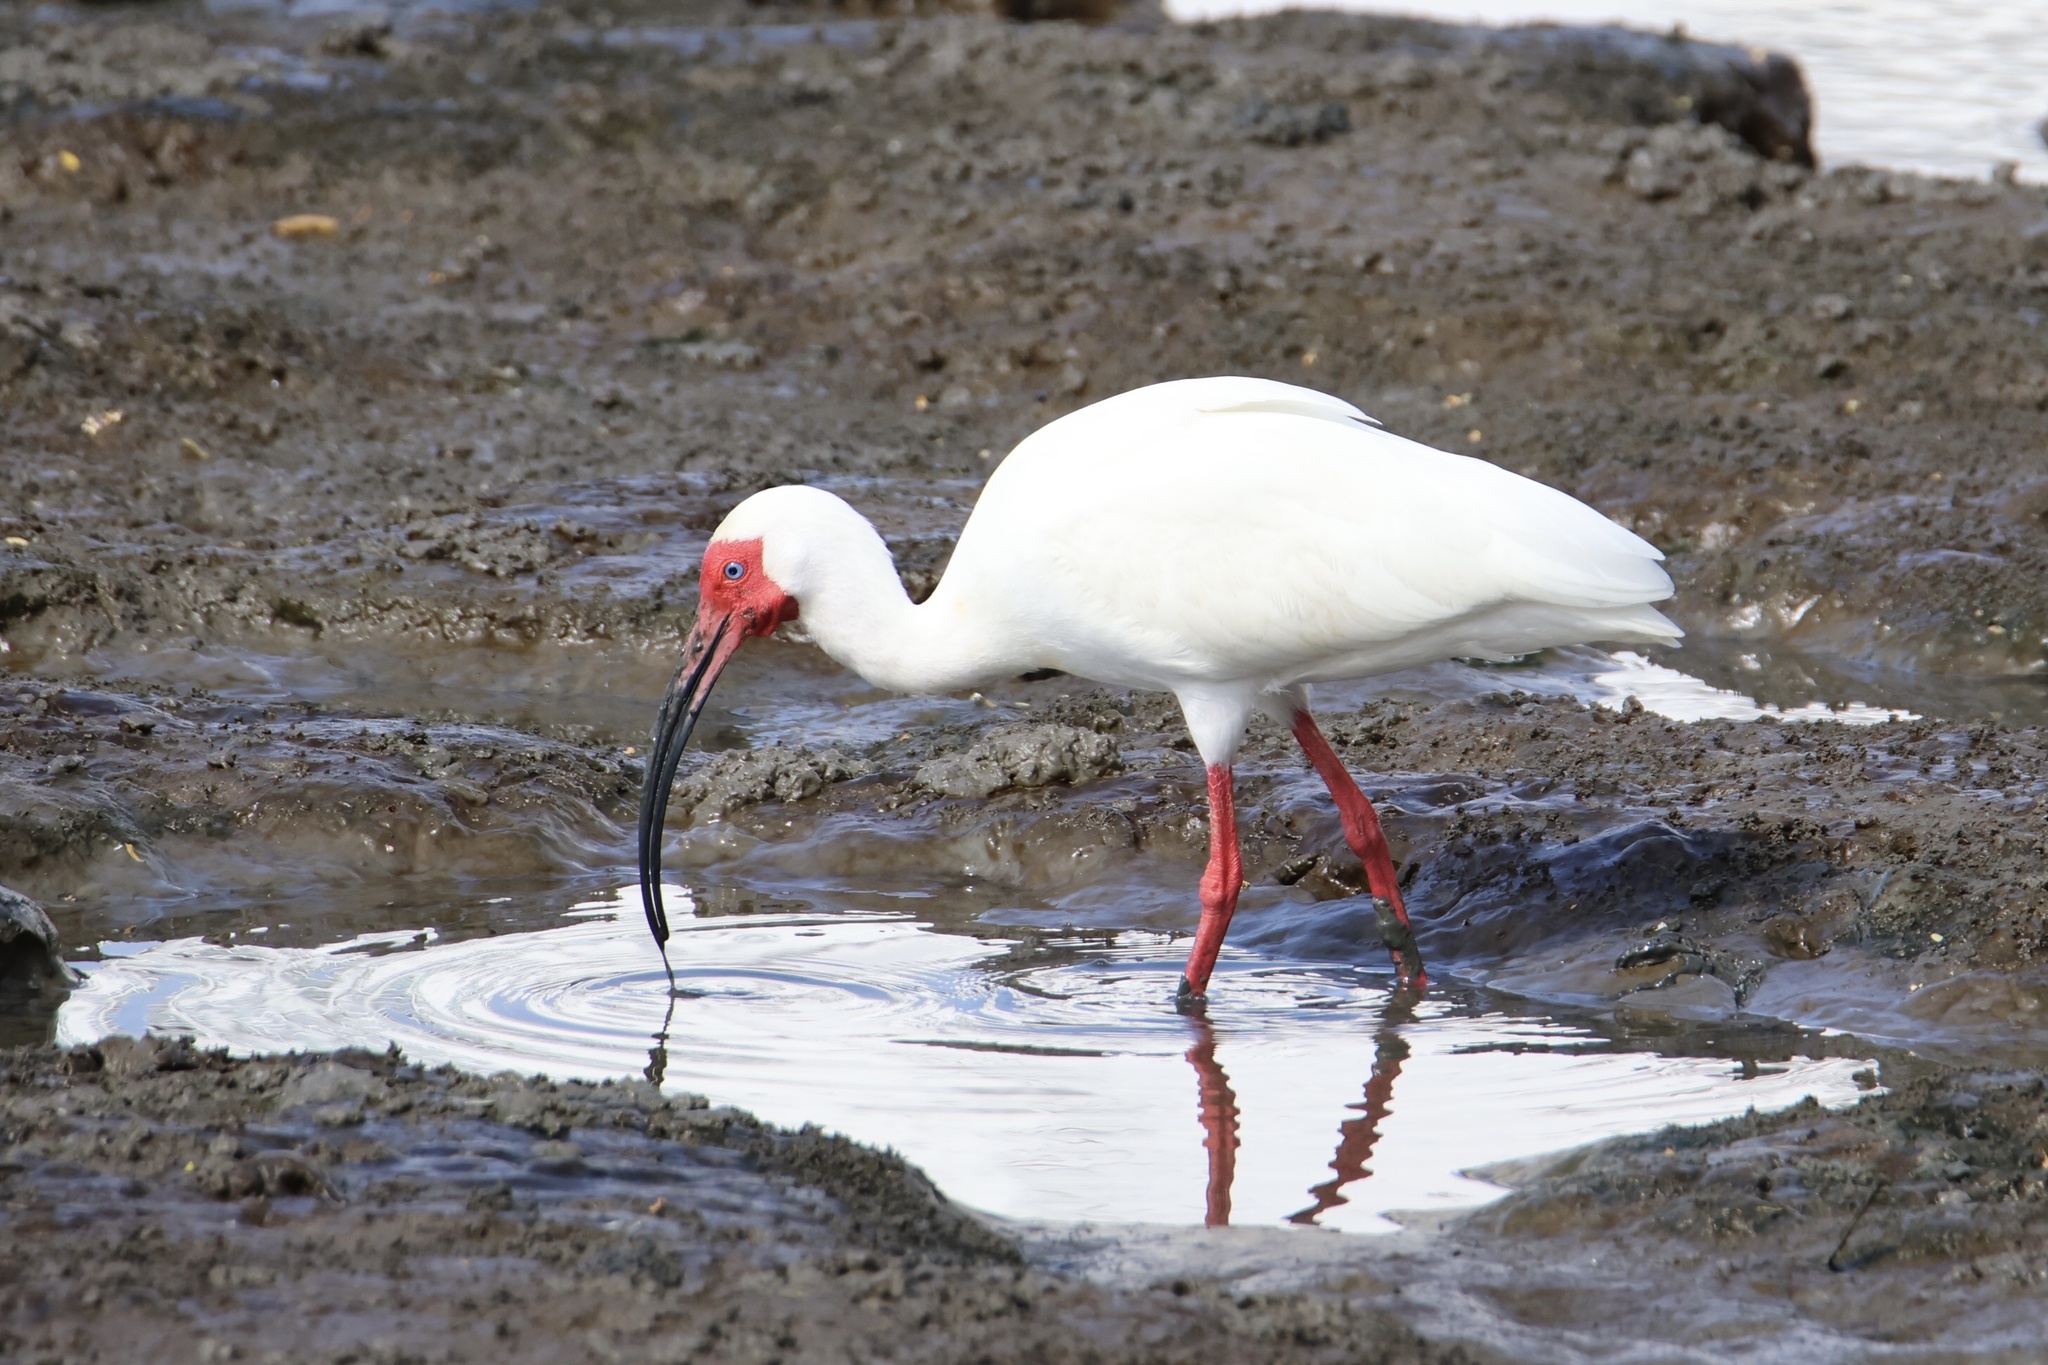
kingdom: Animalia
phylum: Chordata
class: Aves
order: Pelecaniformes
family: Threskiornithidae
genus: Eudocimus
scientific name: Eudocimus albus
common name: White ibis
